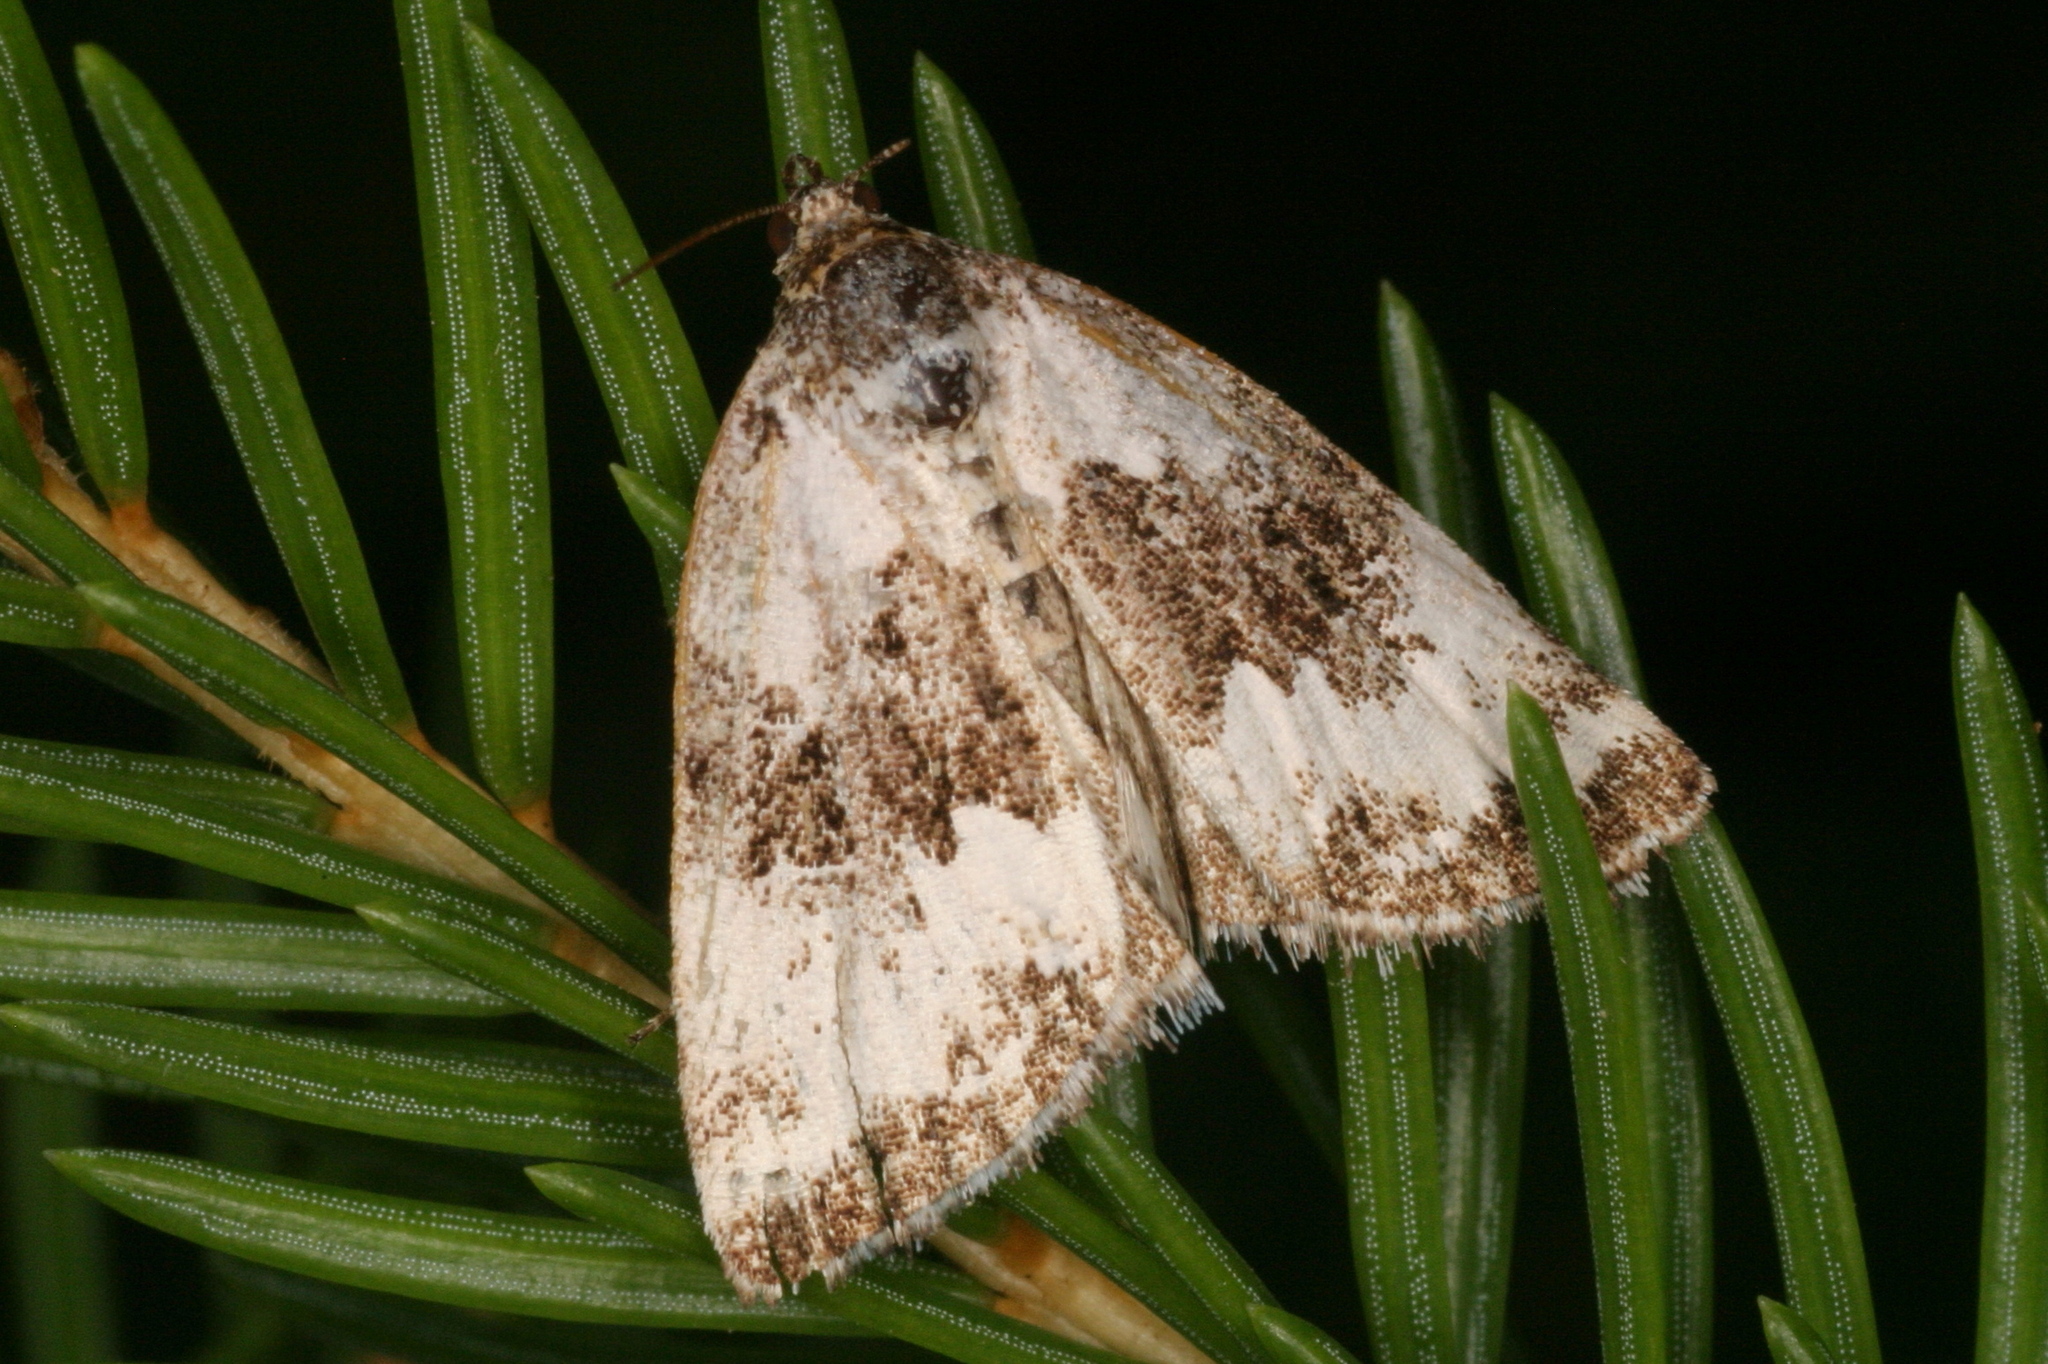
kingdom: Animalia
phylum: Arthropoda
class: Insecta
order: Lepidoptera
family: Noctuidae
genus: Deltote
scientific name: Deltote deceptoria
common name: Pretty marbled
